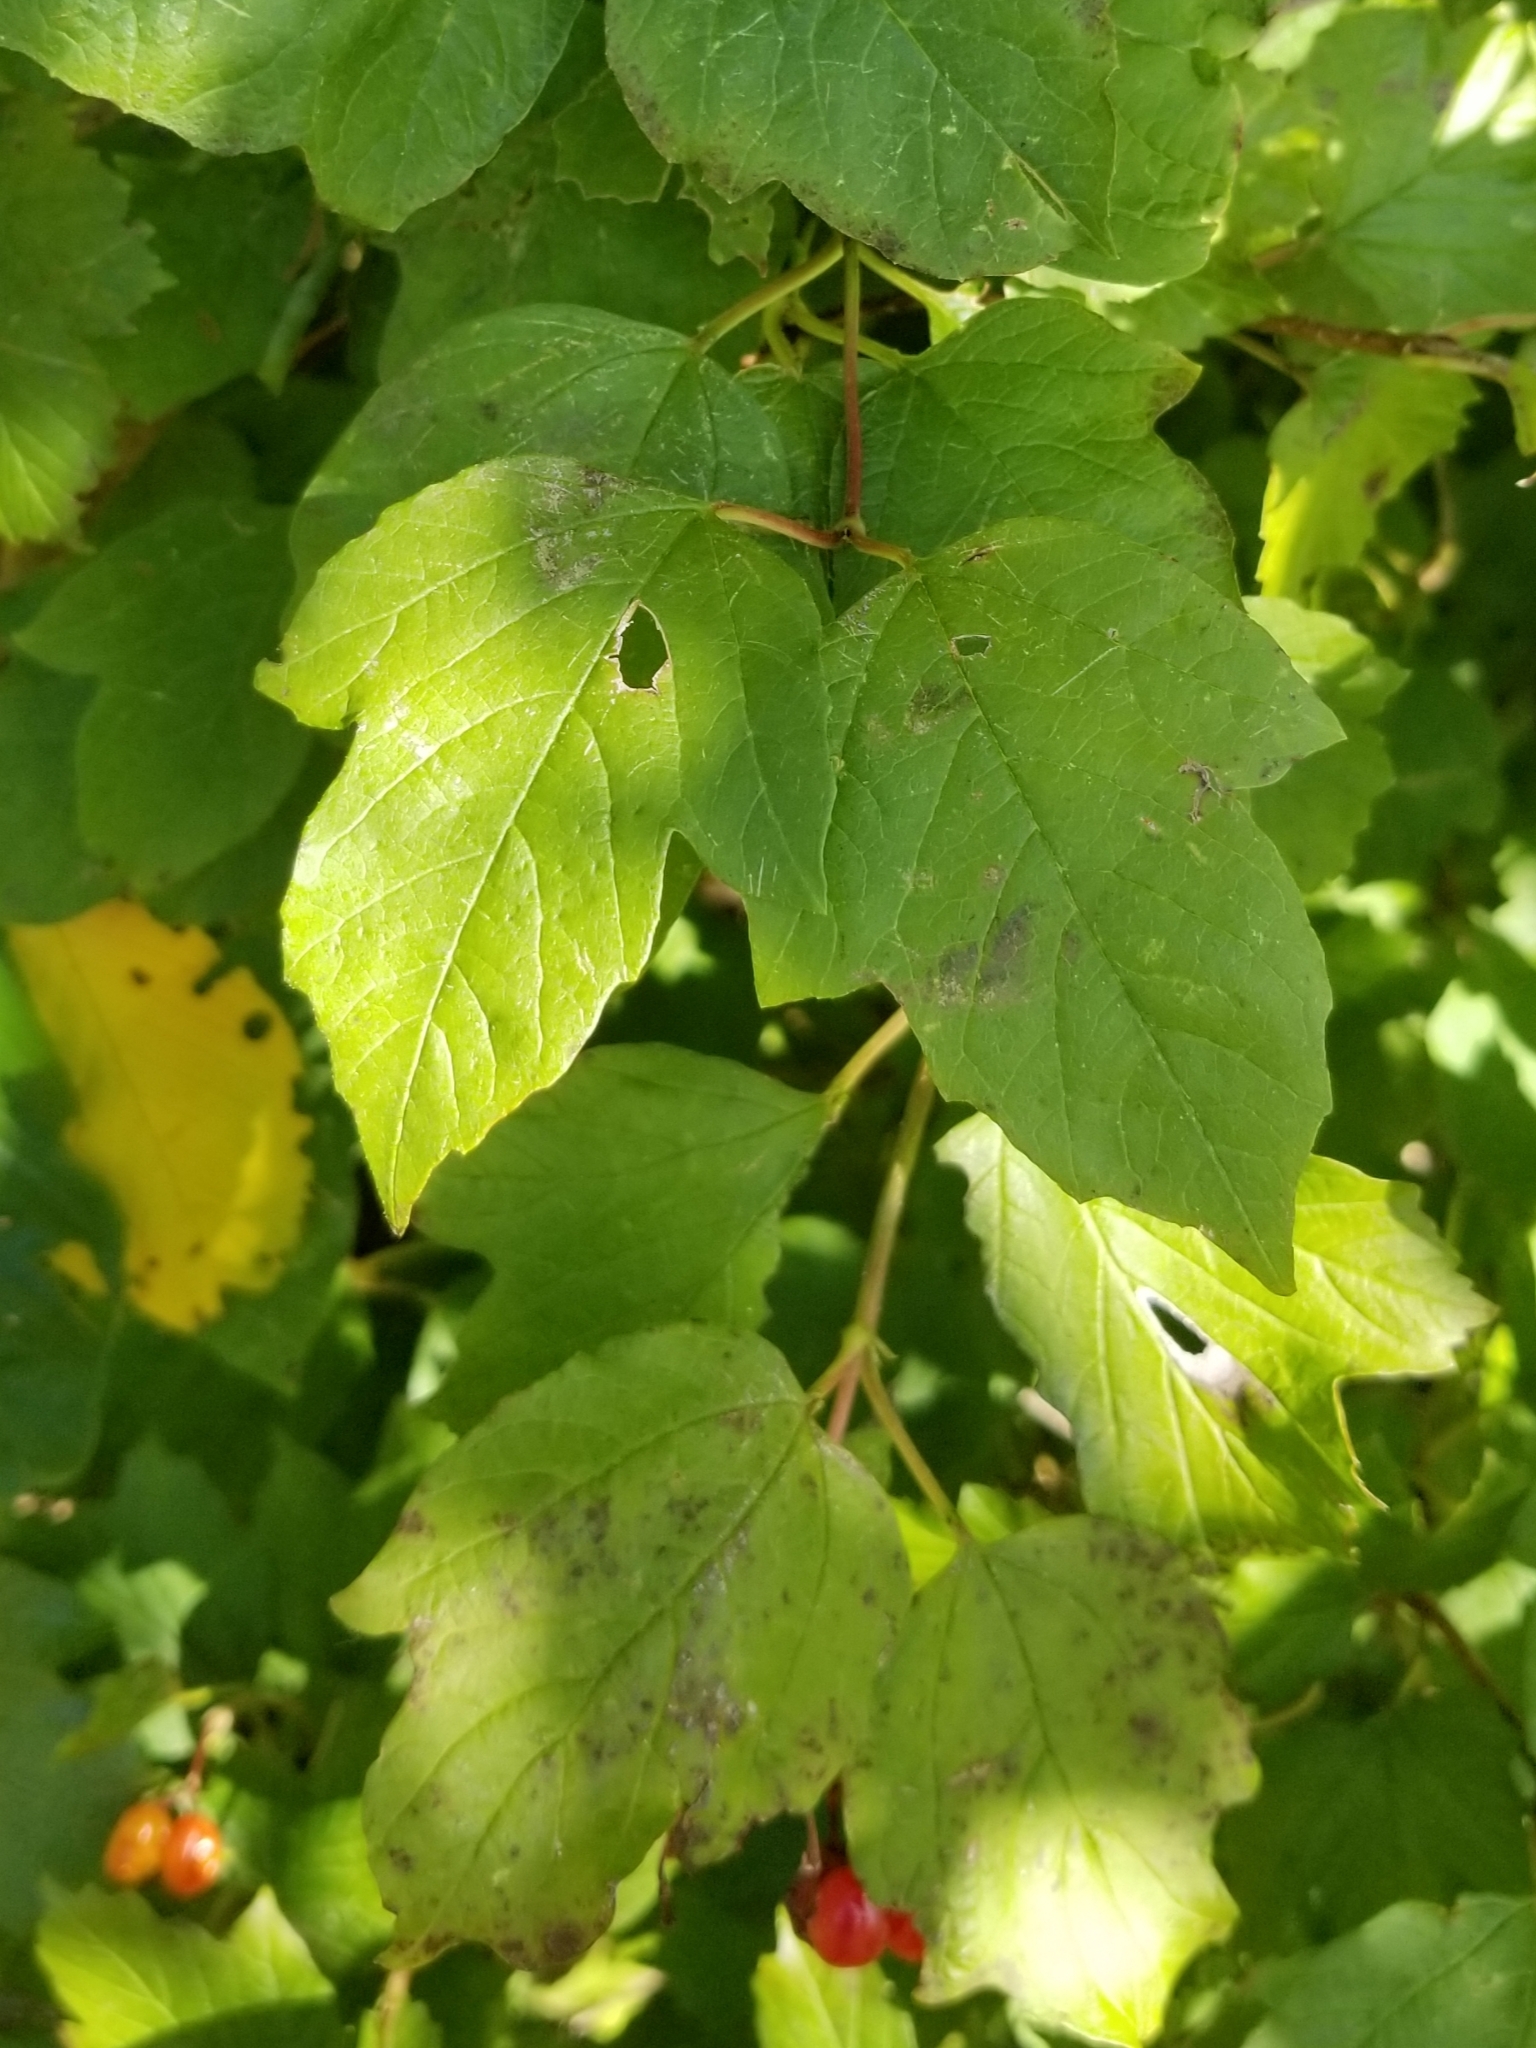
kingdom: Plantae
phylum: Tracheophyta
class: Magnoliopsida
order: Dipsacales
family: Viburnaceae
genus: Viburnum
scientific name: Viburnum opulus
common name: Guelder-rose
